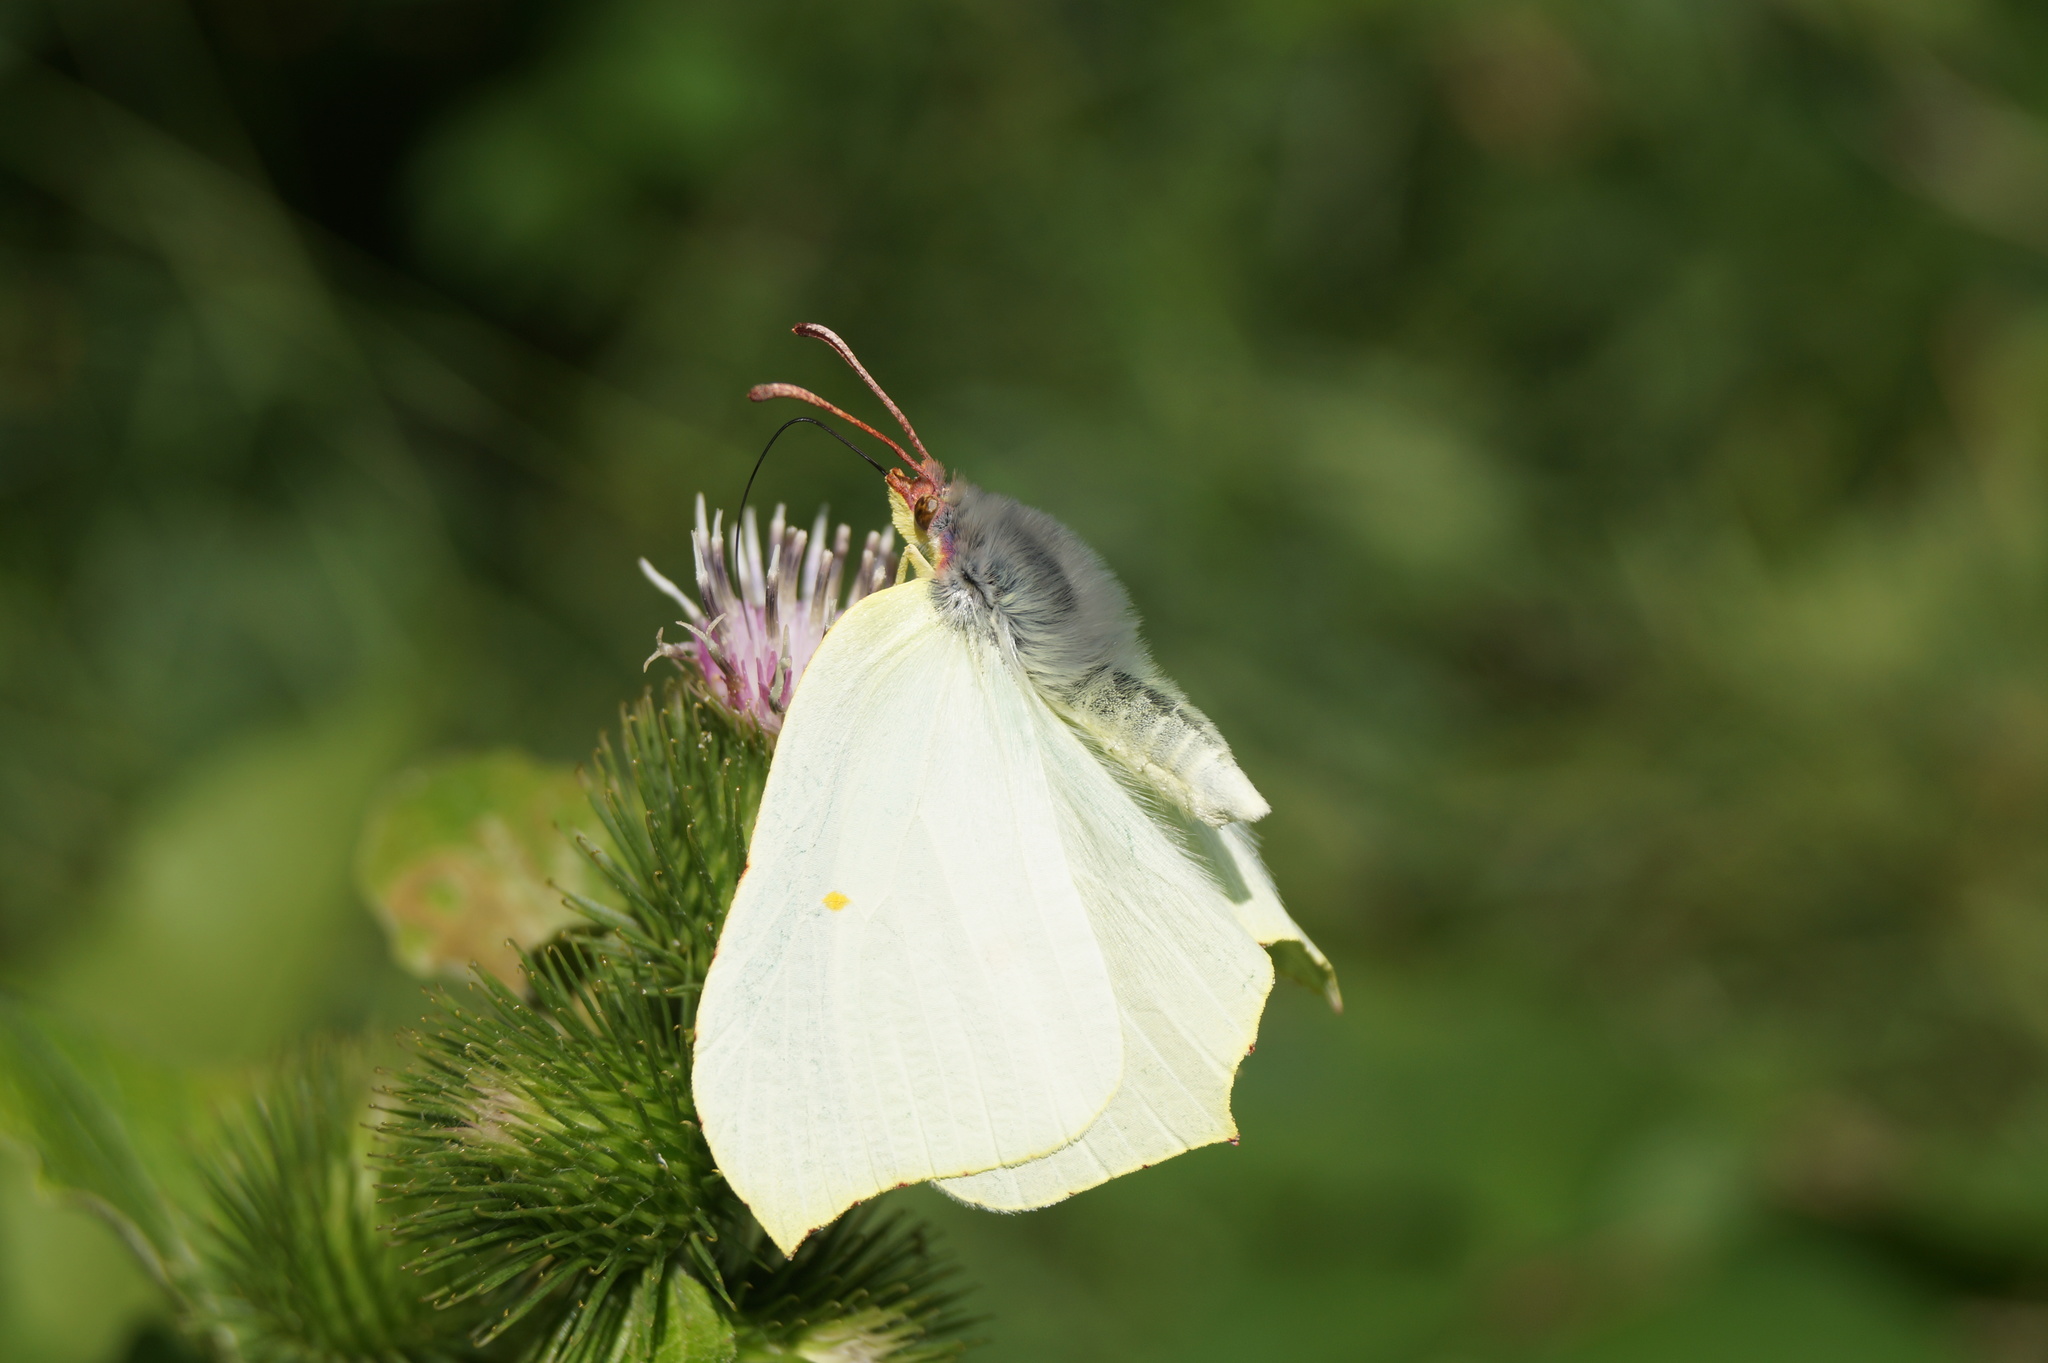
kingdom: Animalia
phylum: Arthropoda
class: Insecta
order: Lepidoptera
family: Pieridae
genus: Gonepteryx
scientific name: Gonepteryx rhamni
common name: Brimstone
